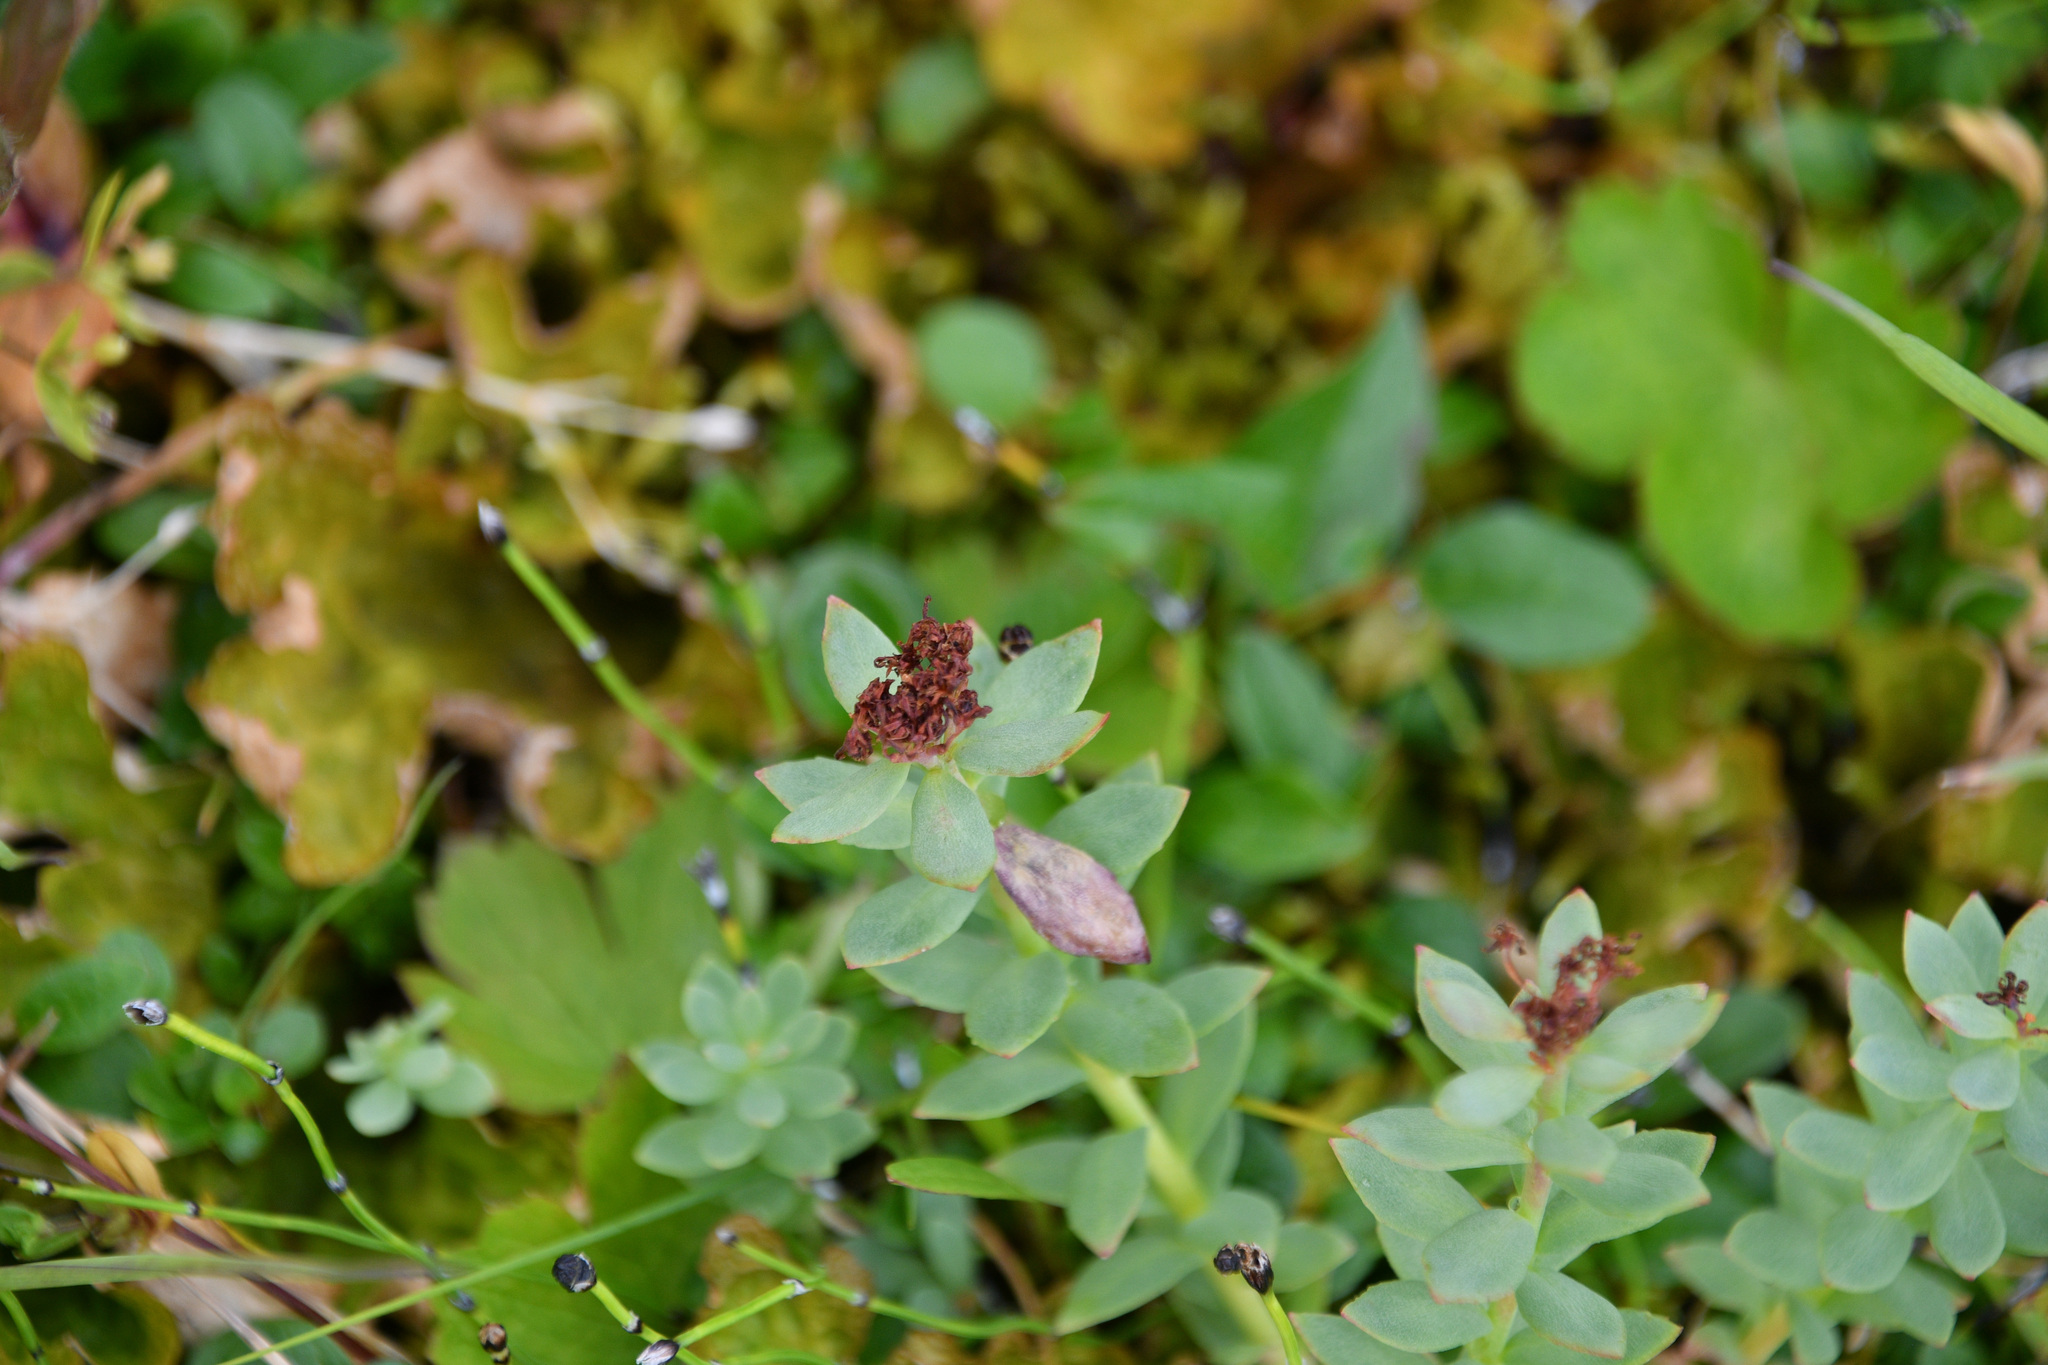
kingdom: Plantae
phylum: Tracheophyta
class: Magnoliopsida
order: Saxifragales
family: Crassulaceae
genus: Rhodiola
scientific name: Rhodiola integrifolia
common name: Western roseroot
